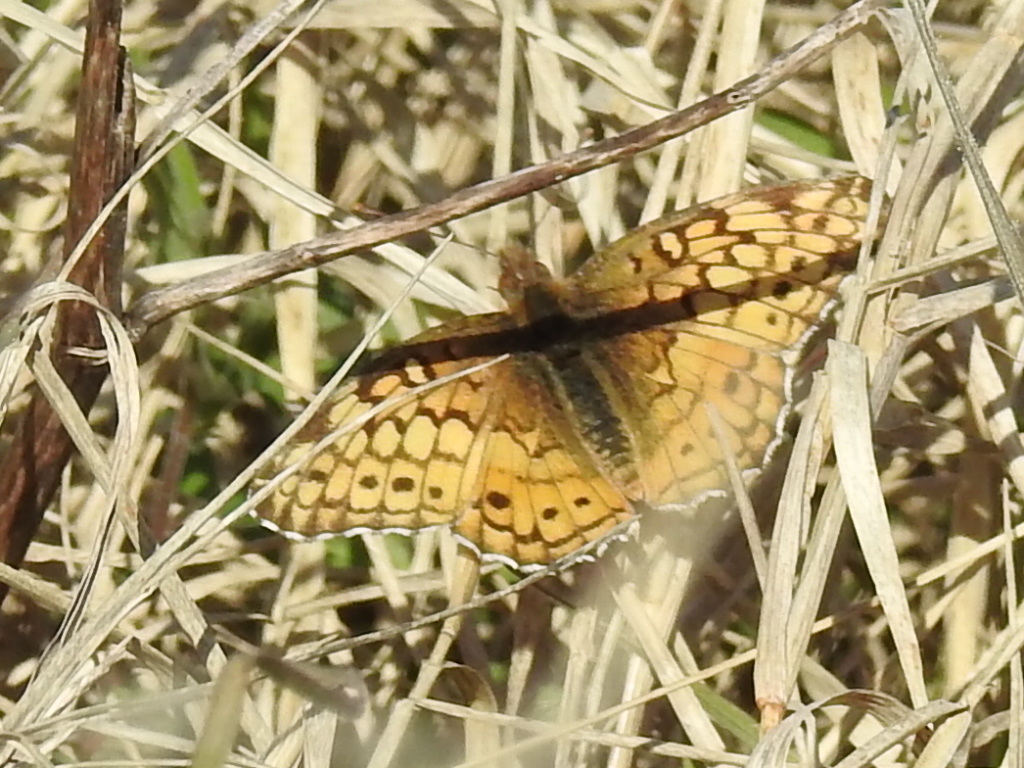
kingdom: Animalia
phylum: Arthropoda
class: Insecta
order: Lepidoptera
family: Nymphalidae
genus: Euptoieta
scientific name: Euptoieta claudia
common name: Variegated fritillary
